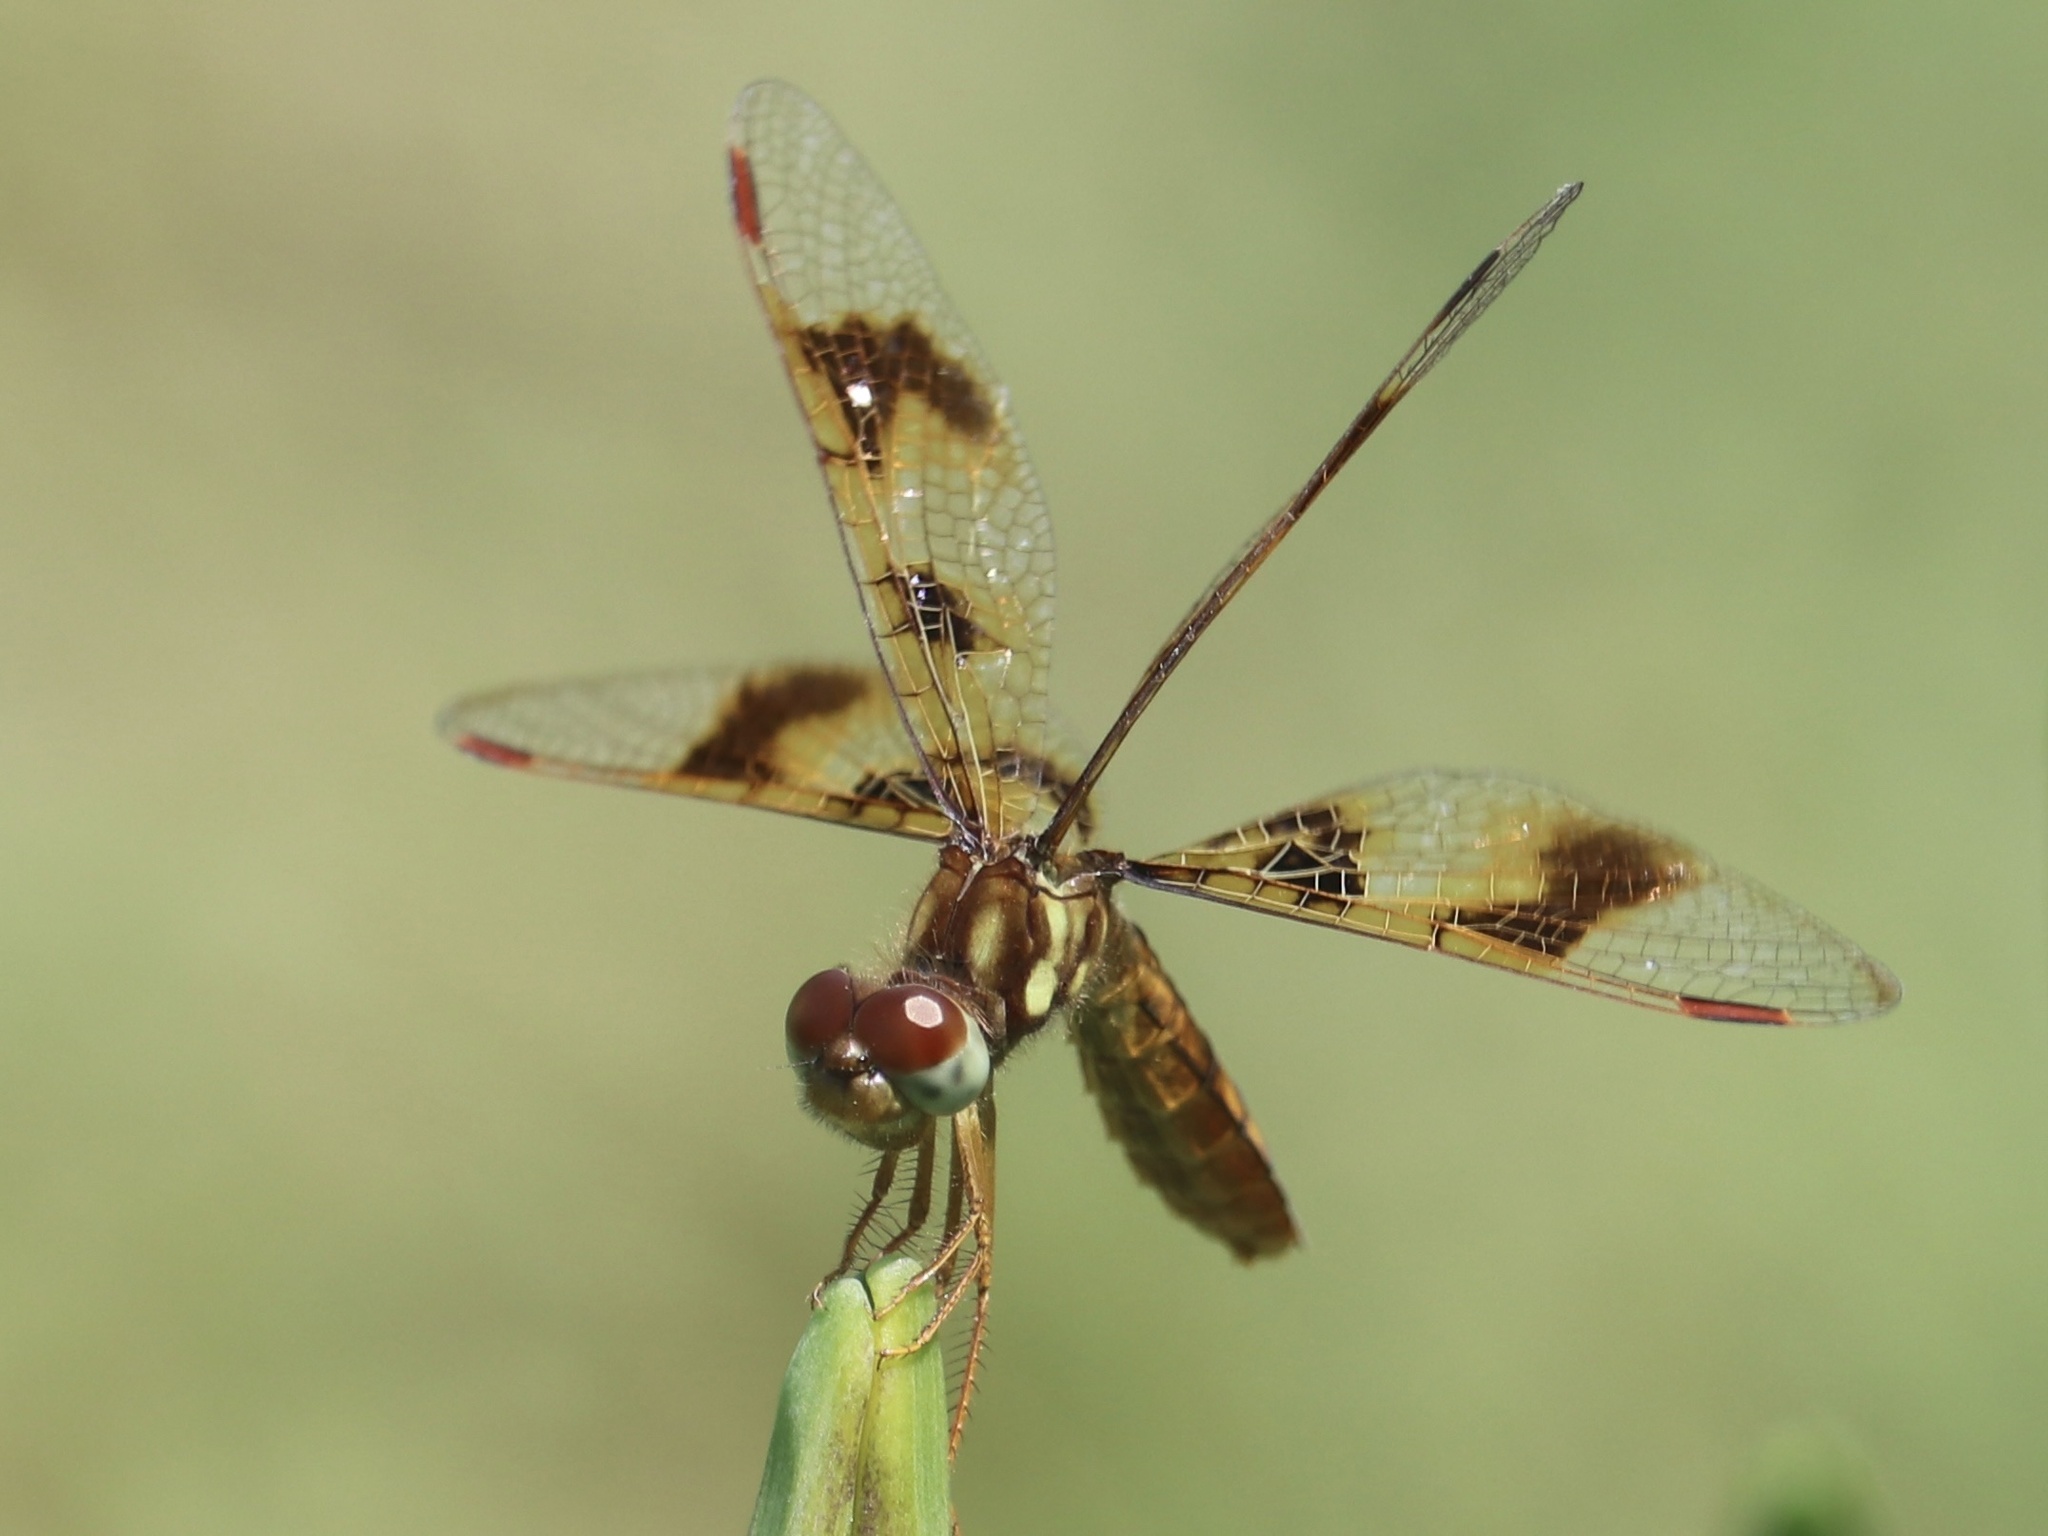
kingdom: Animalia
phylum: Arthropoda
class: Insecta
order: Odonata
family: Libellulidae
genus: Perithemis
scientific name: Perithemis tenera
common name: Eastern amberwing
